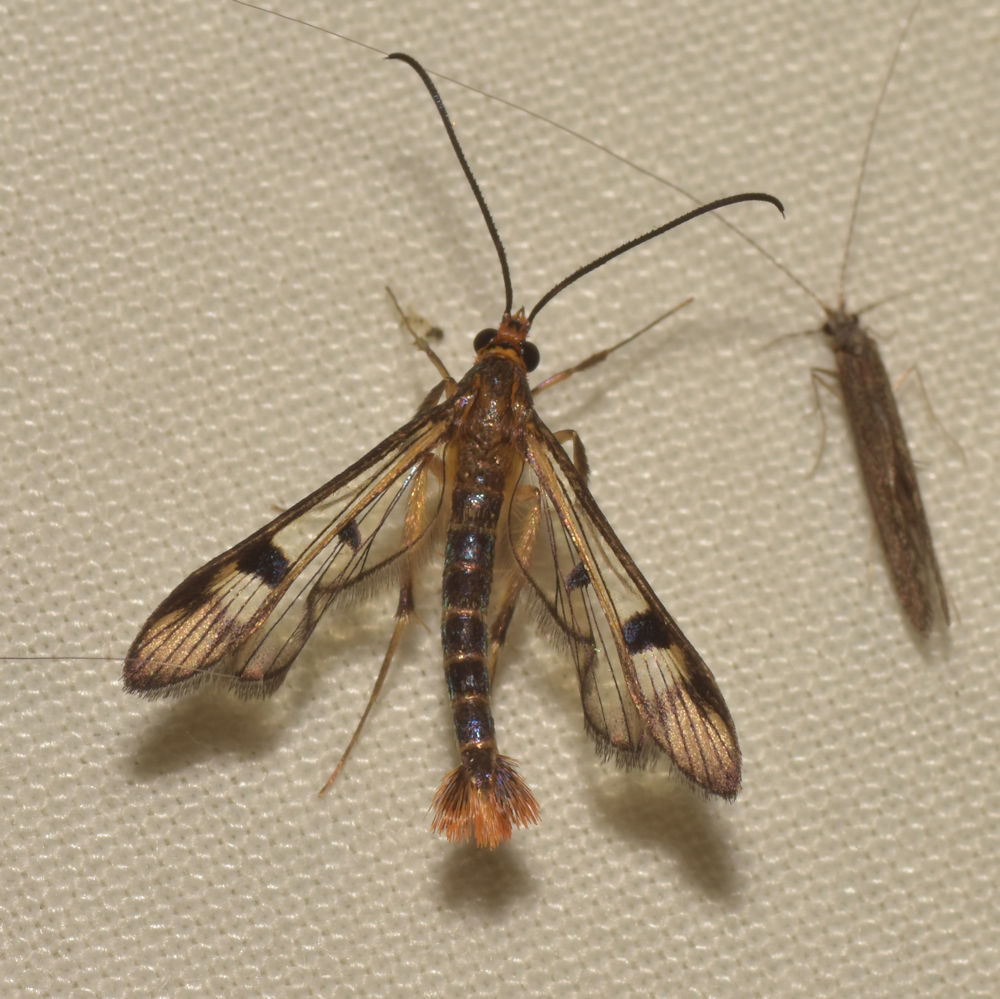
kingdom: Animalia
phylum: Arthropoda
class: Insecta
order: Lepidoptera
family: Sesiidae
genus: Synanthedon
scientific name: Synanthedon acerni
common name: Maple callus borer moth
